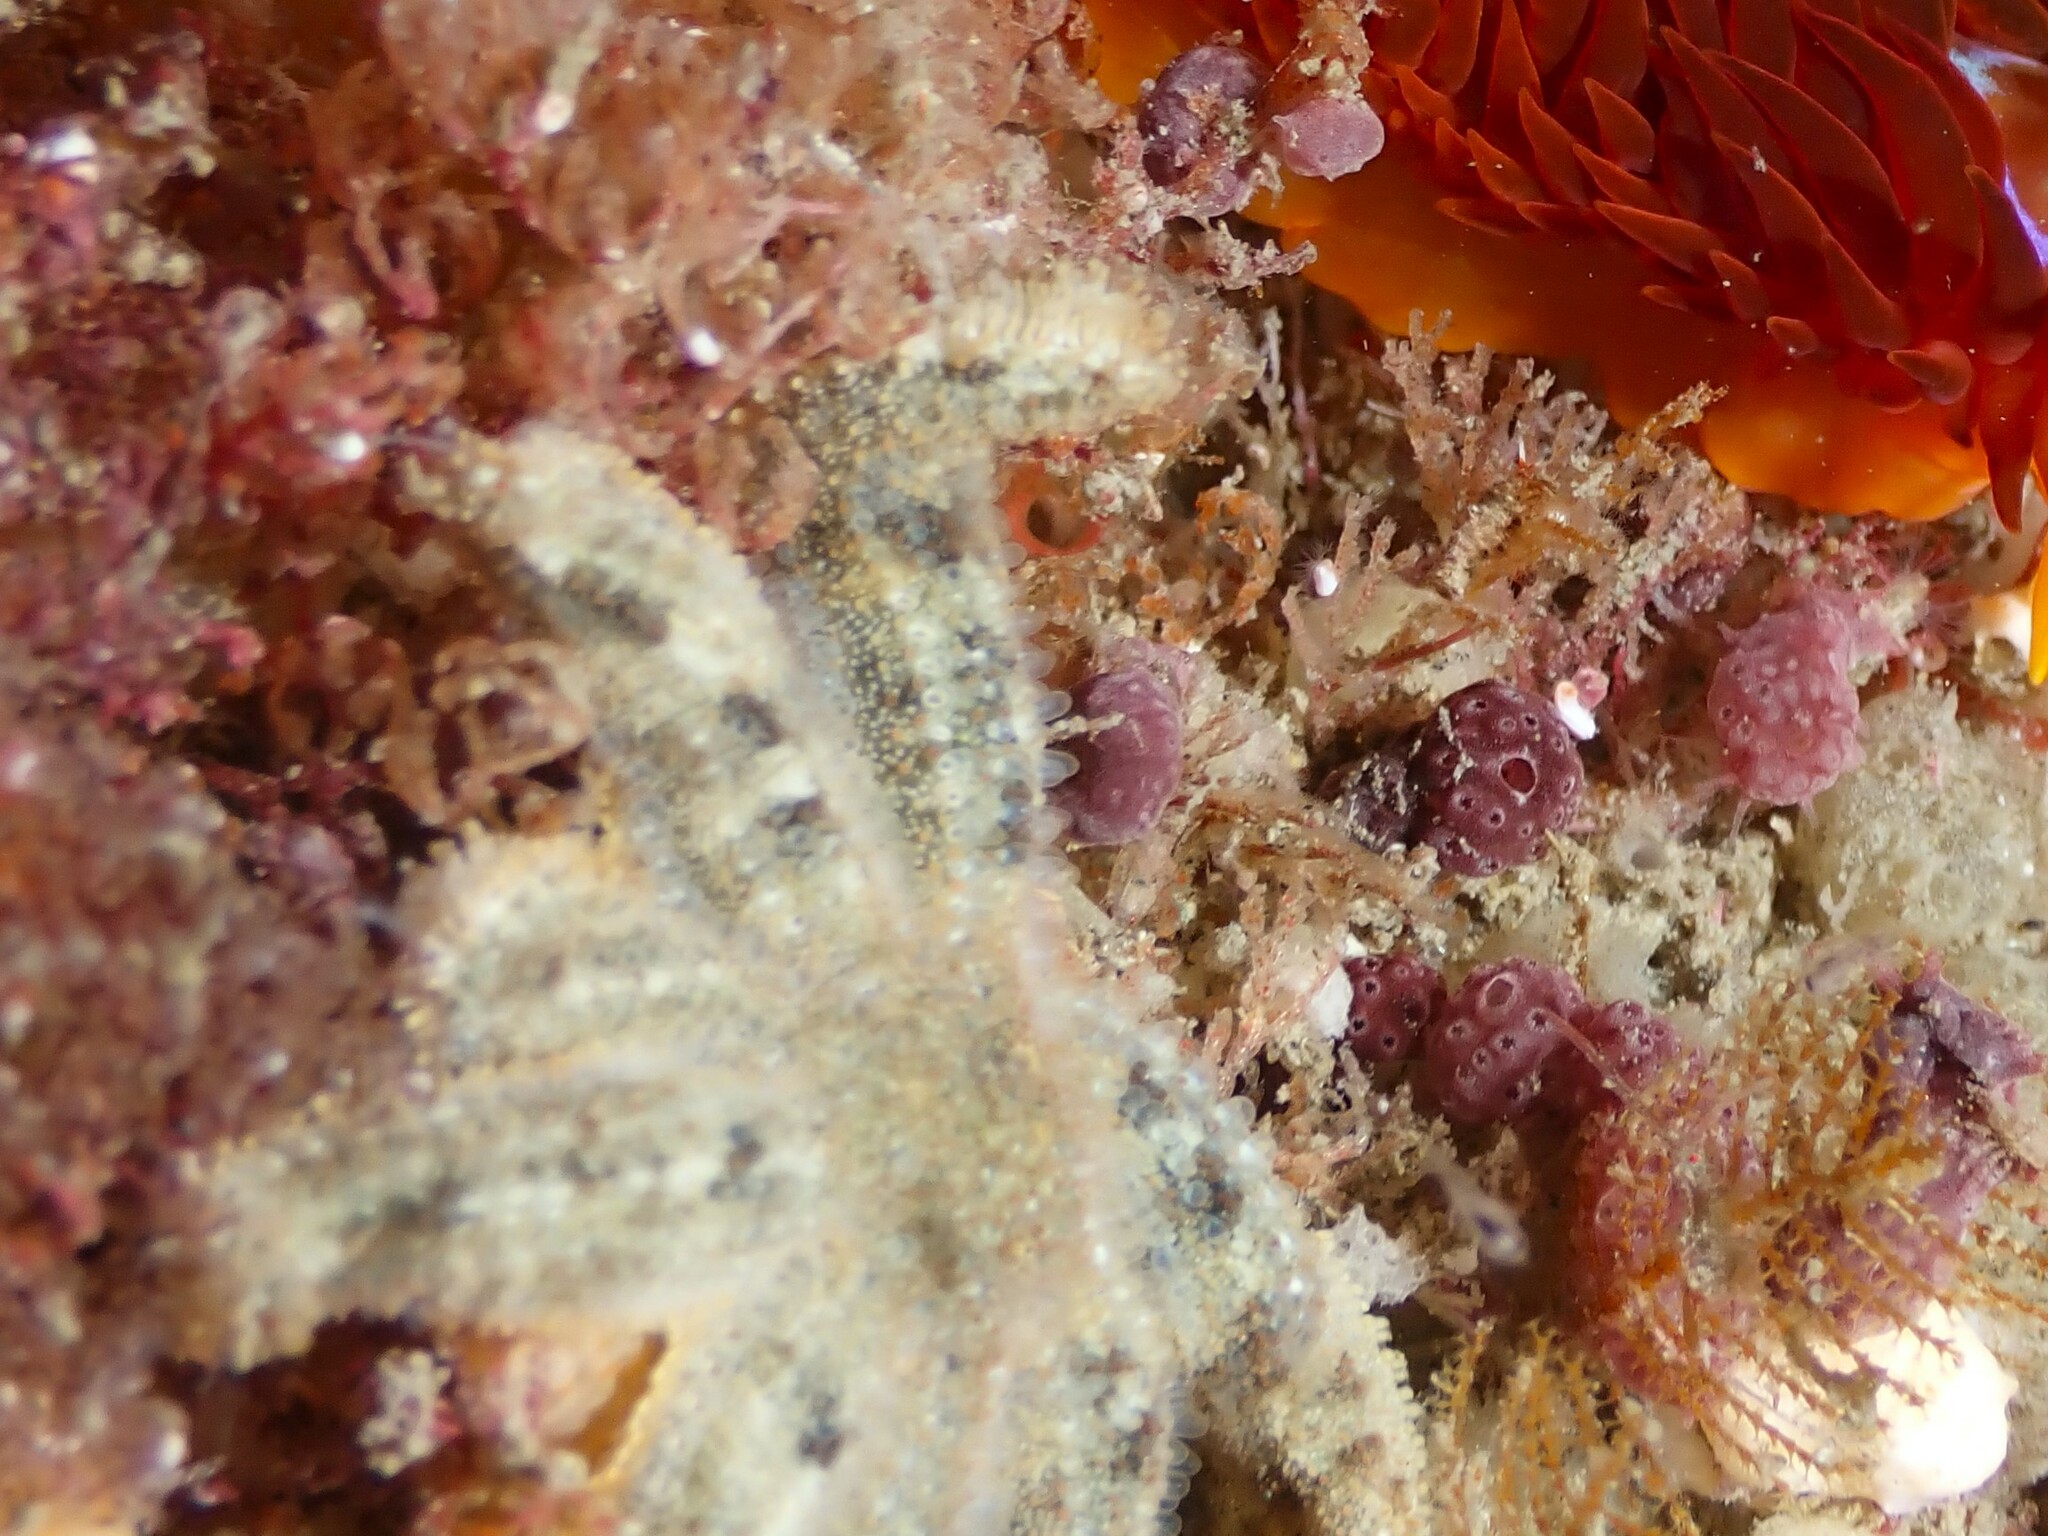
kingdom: Animalia
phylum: Echinodermata
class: Asteroidea
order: Forcipulatida
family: Stichasteridae
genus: Allostichaster
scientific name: Allostichaster polyplax
